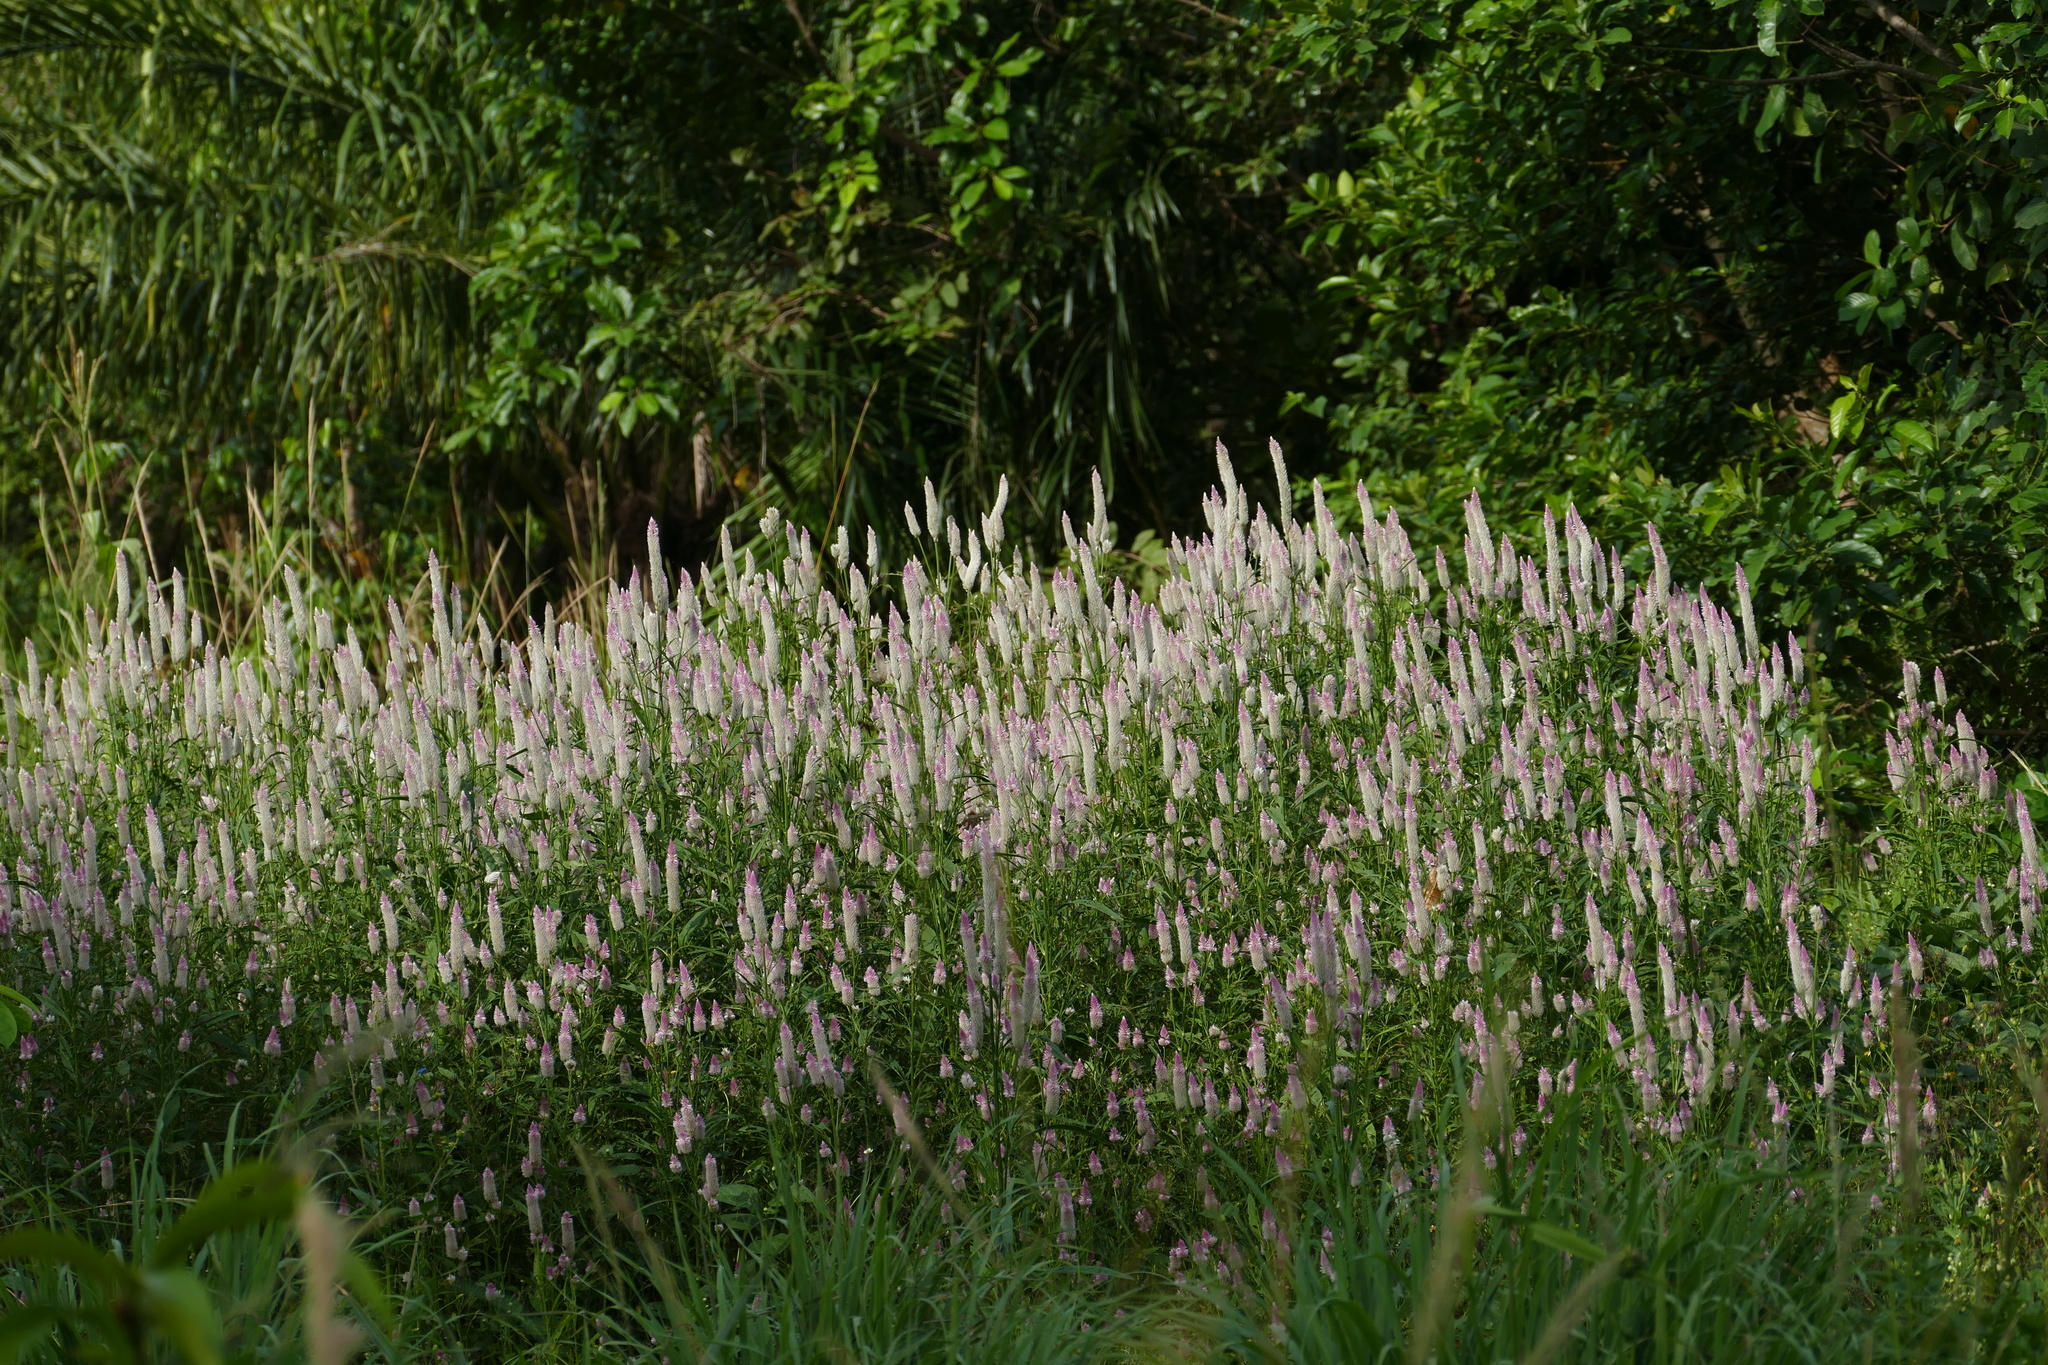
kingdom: Plantae
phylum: Tracheophyta
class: Magnoliopsida
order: Caryophyllales
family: Amaranthaceae
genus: Celosia
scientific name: Celosia argentea
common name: Feather cockscomb
